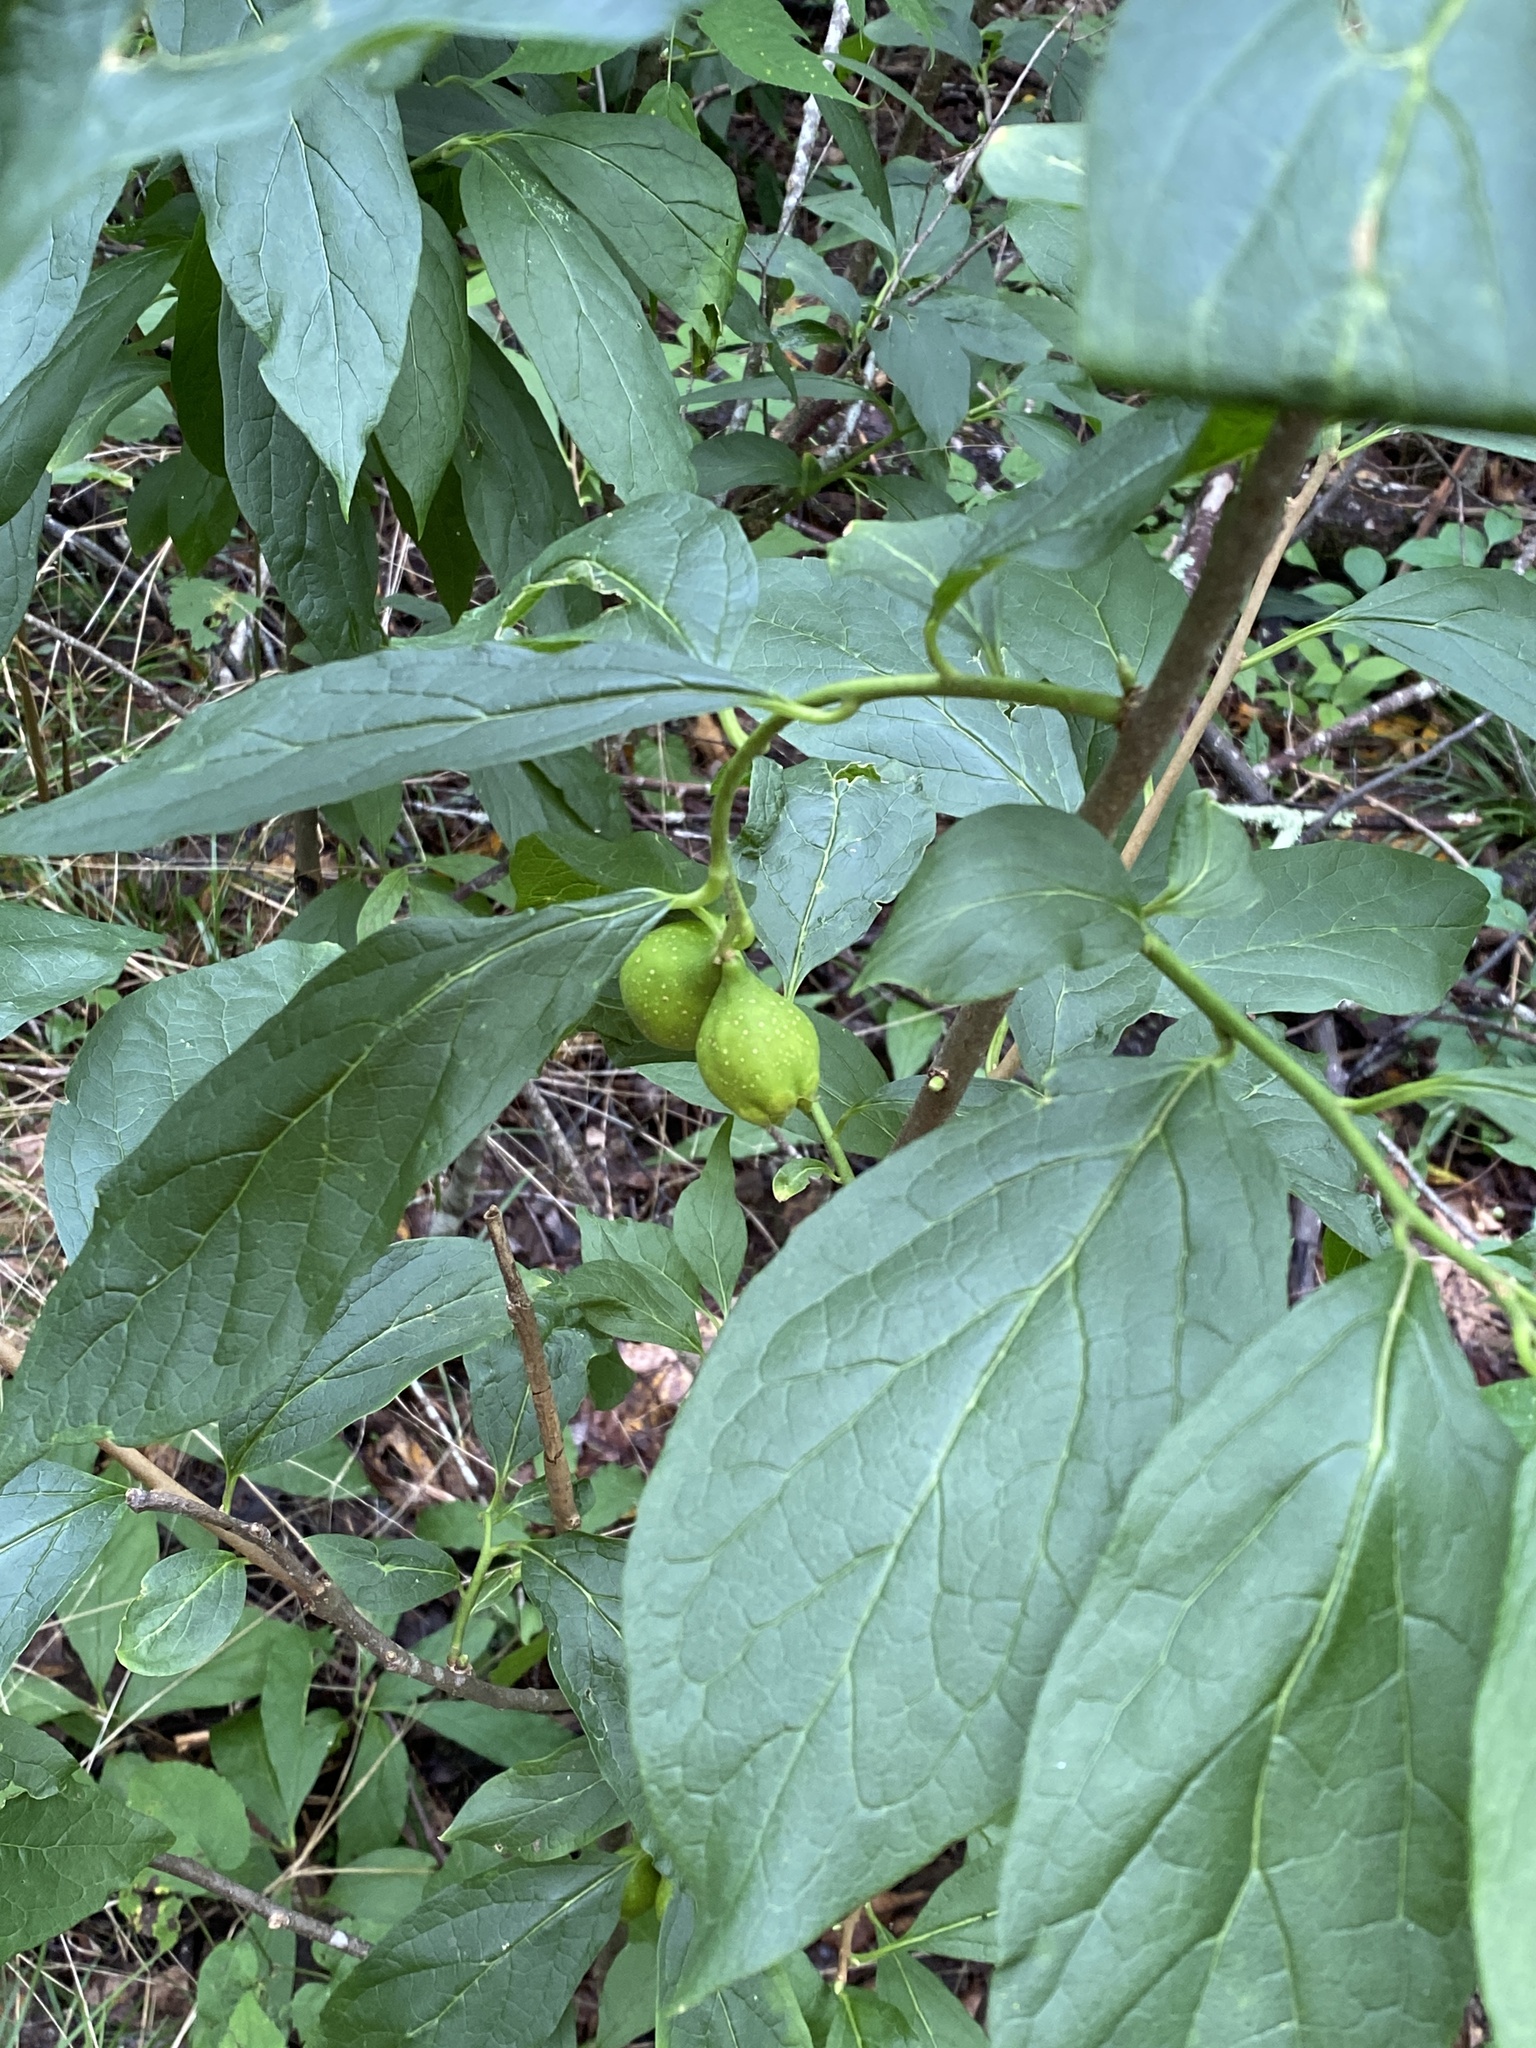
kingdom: Plantae
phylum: Tracheophyta
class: Magnoliopsida
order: Santalales
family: Cervantesiaceae
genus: Pyrularia
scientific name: Pyrularia pubera
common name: Oilnut
